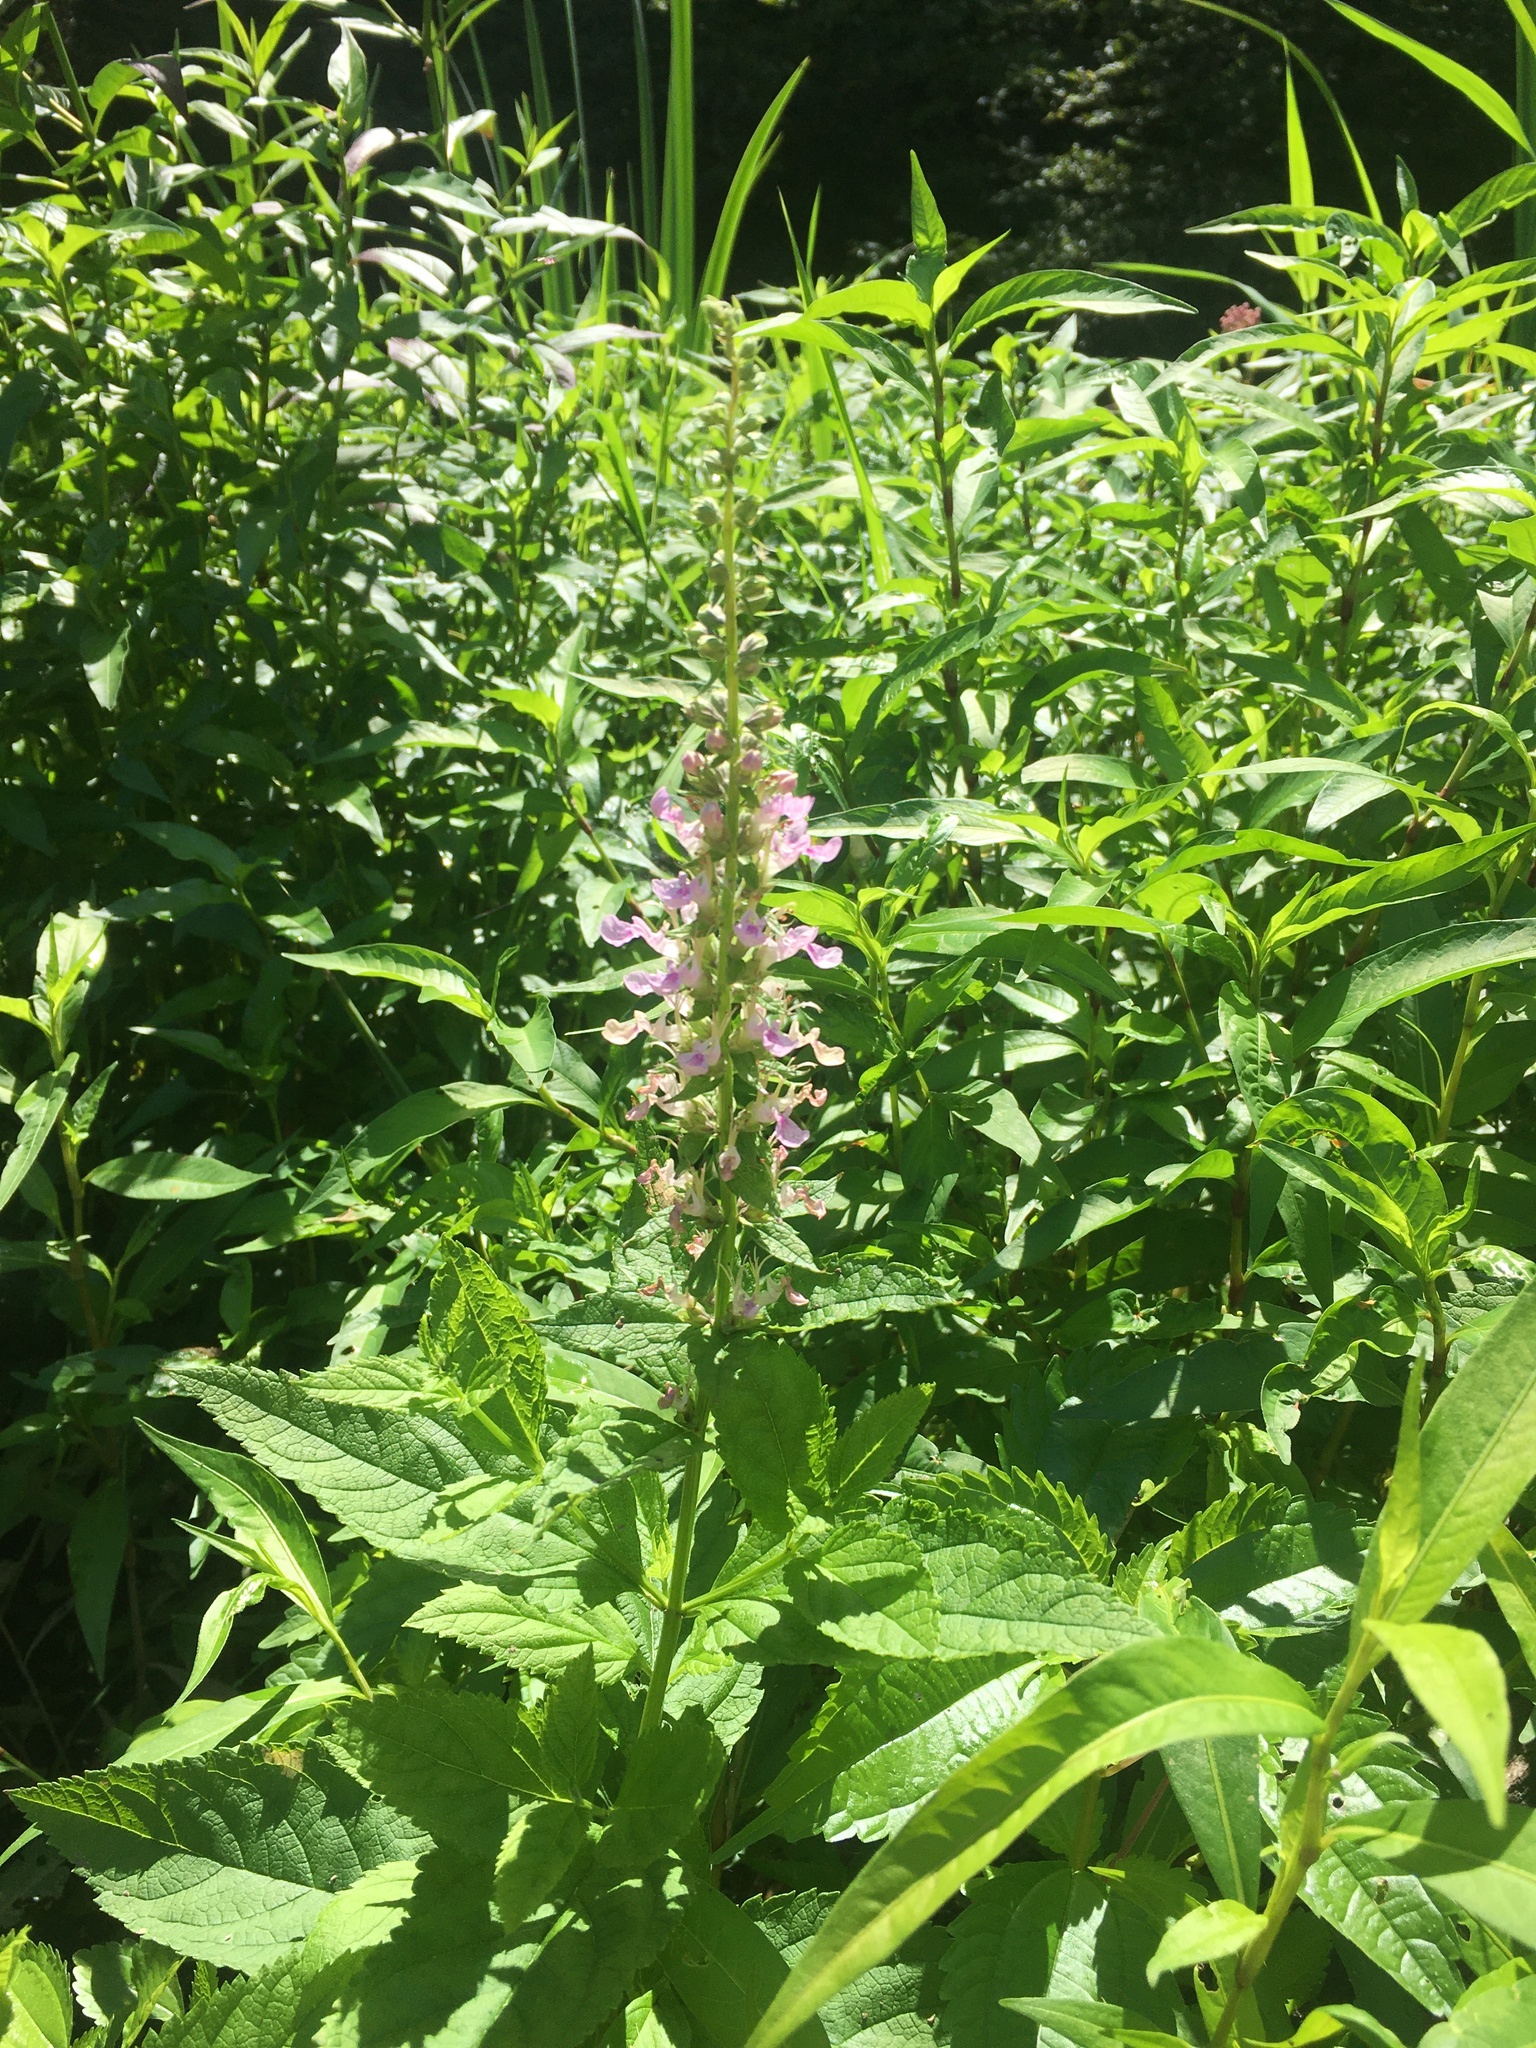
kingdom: Plantae
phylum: Tracheophyta
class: Magnoliopsida
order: Lamiales
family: Lamiaceae
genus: Teucrium
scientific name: Teucrium canadense
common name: American germander
